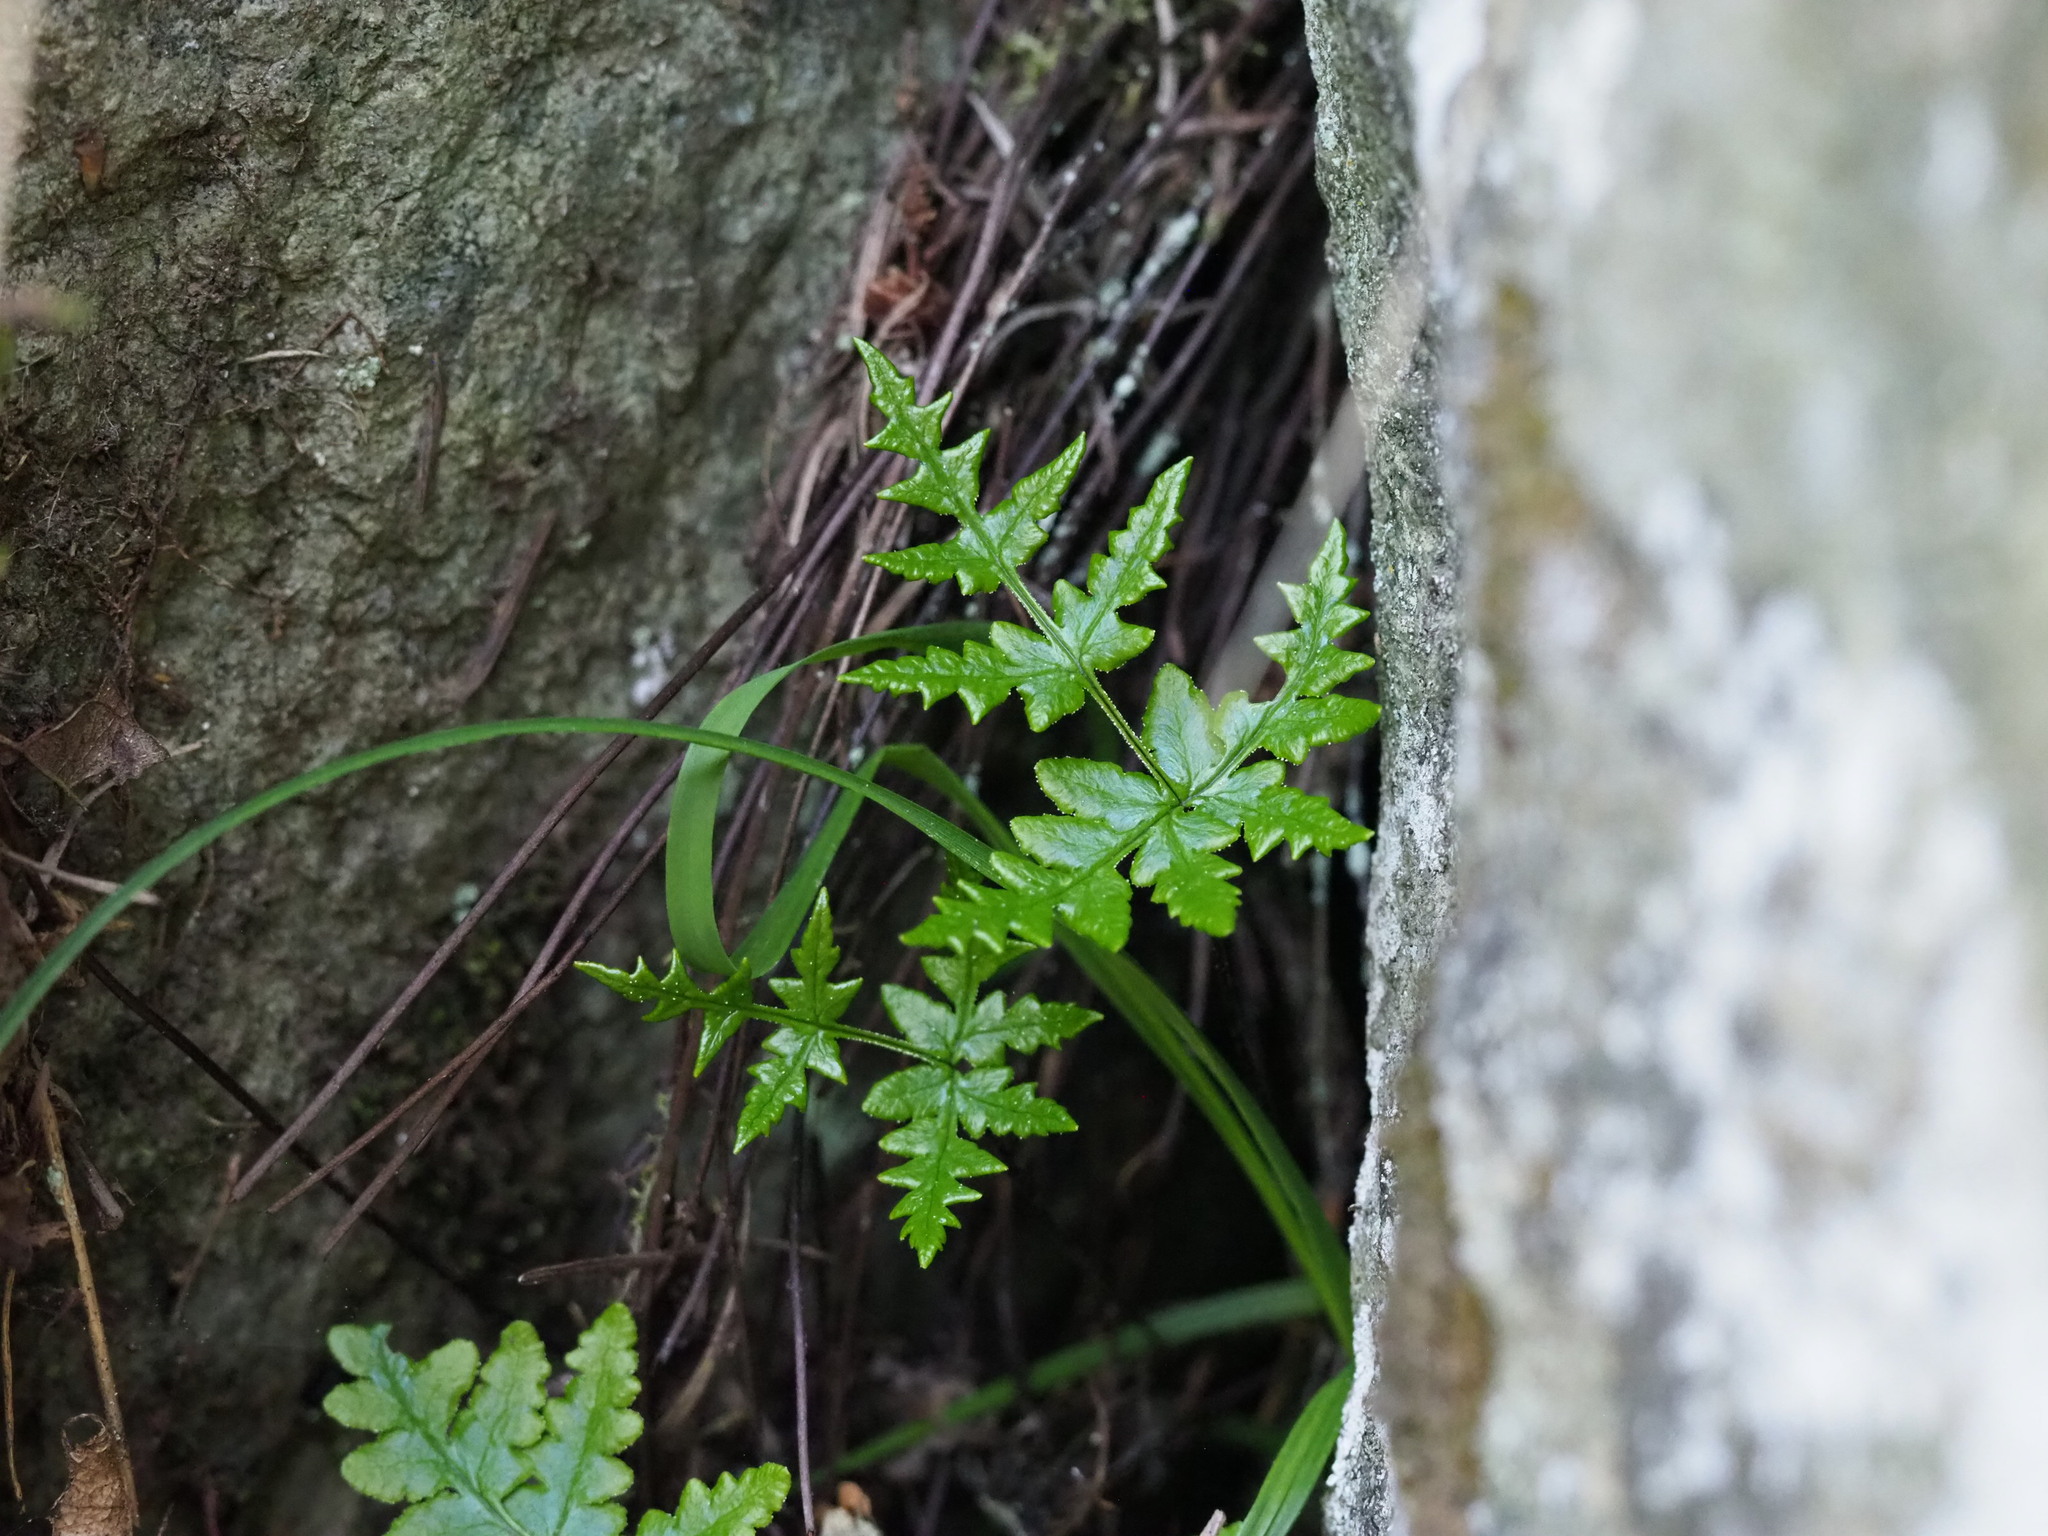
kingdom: Plantae
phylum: Tracheophyta
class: Polypodiopsida
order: Polypodiales
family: Pteridaceae
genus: Pentagramma
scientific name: Pentagramma triangularis
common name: Gold fern
